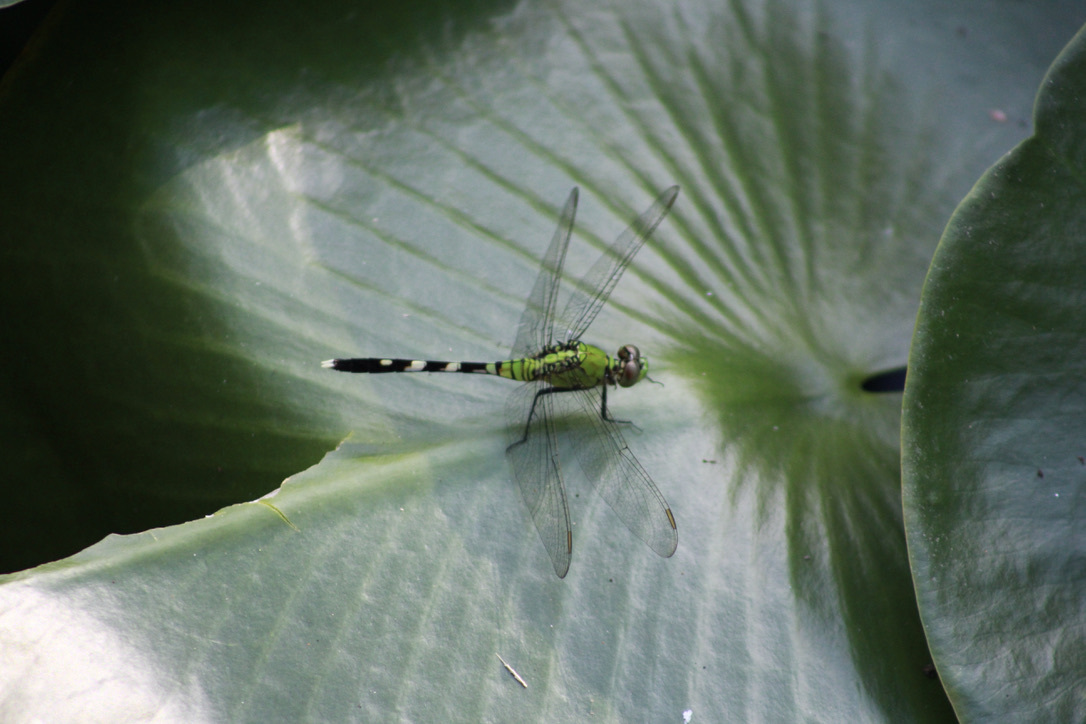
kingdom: Animalia
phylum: Arthropoda
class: Insecta
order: Odonata
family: Libellulidae
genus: Erythemis
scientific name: Erythemis simplicicollis
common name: Eastern pondhawk
